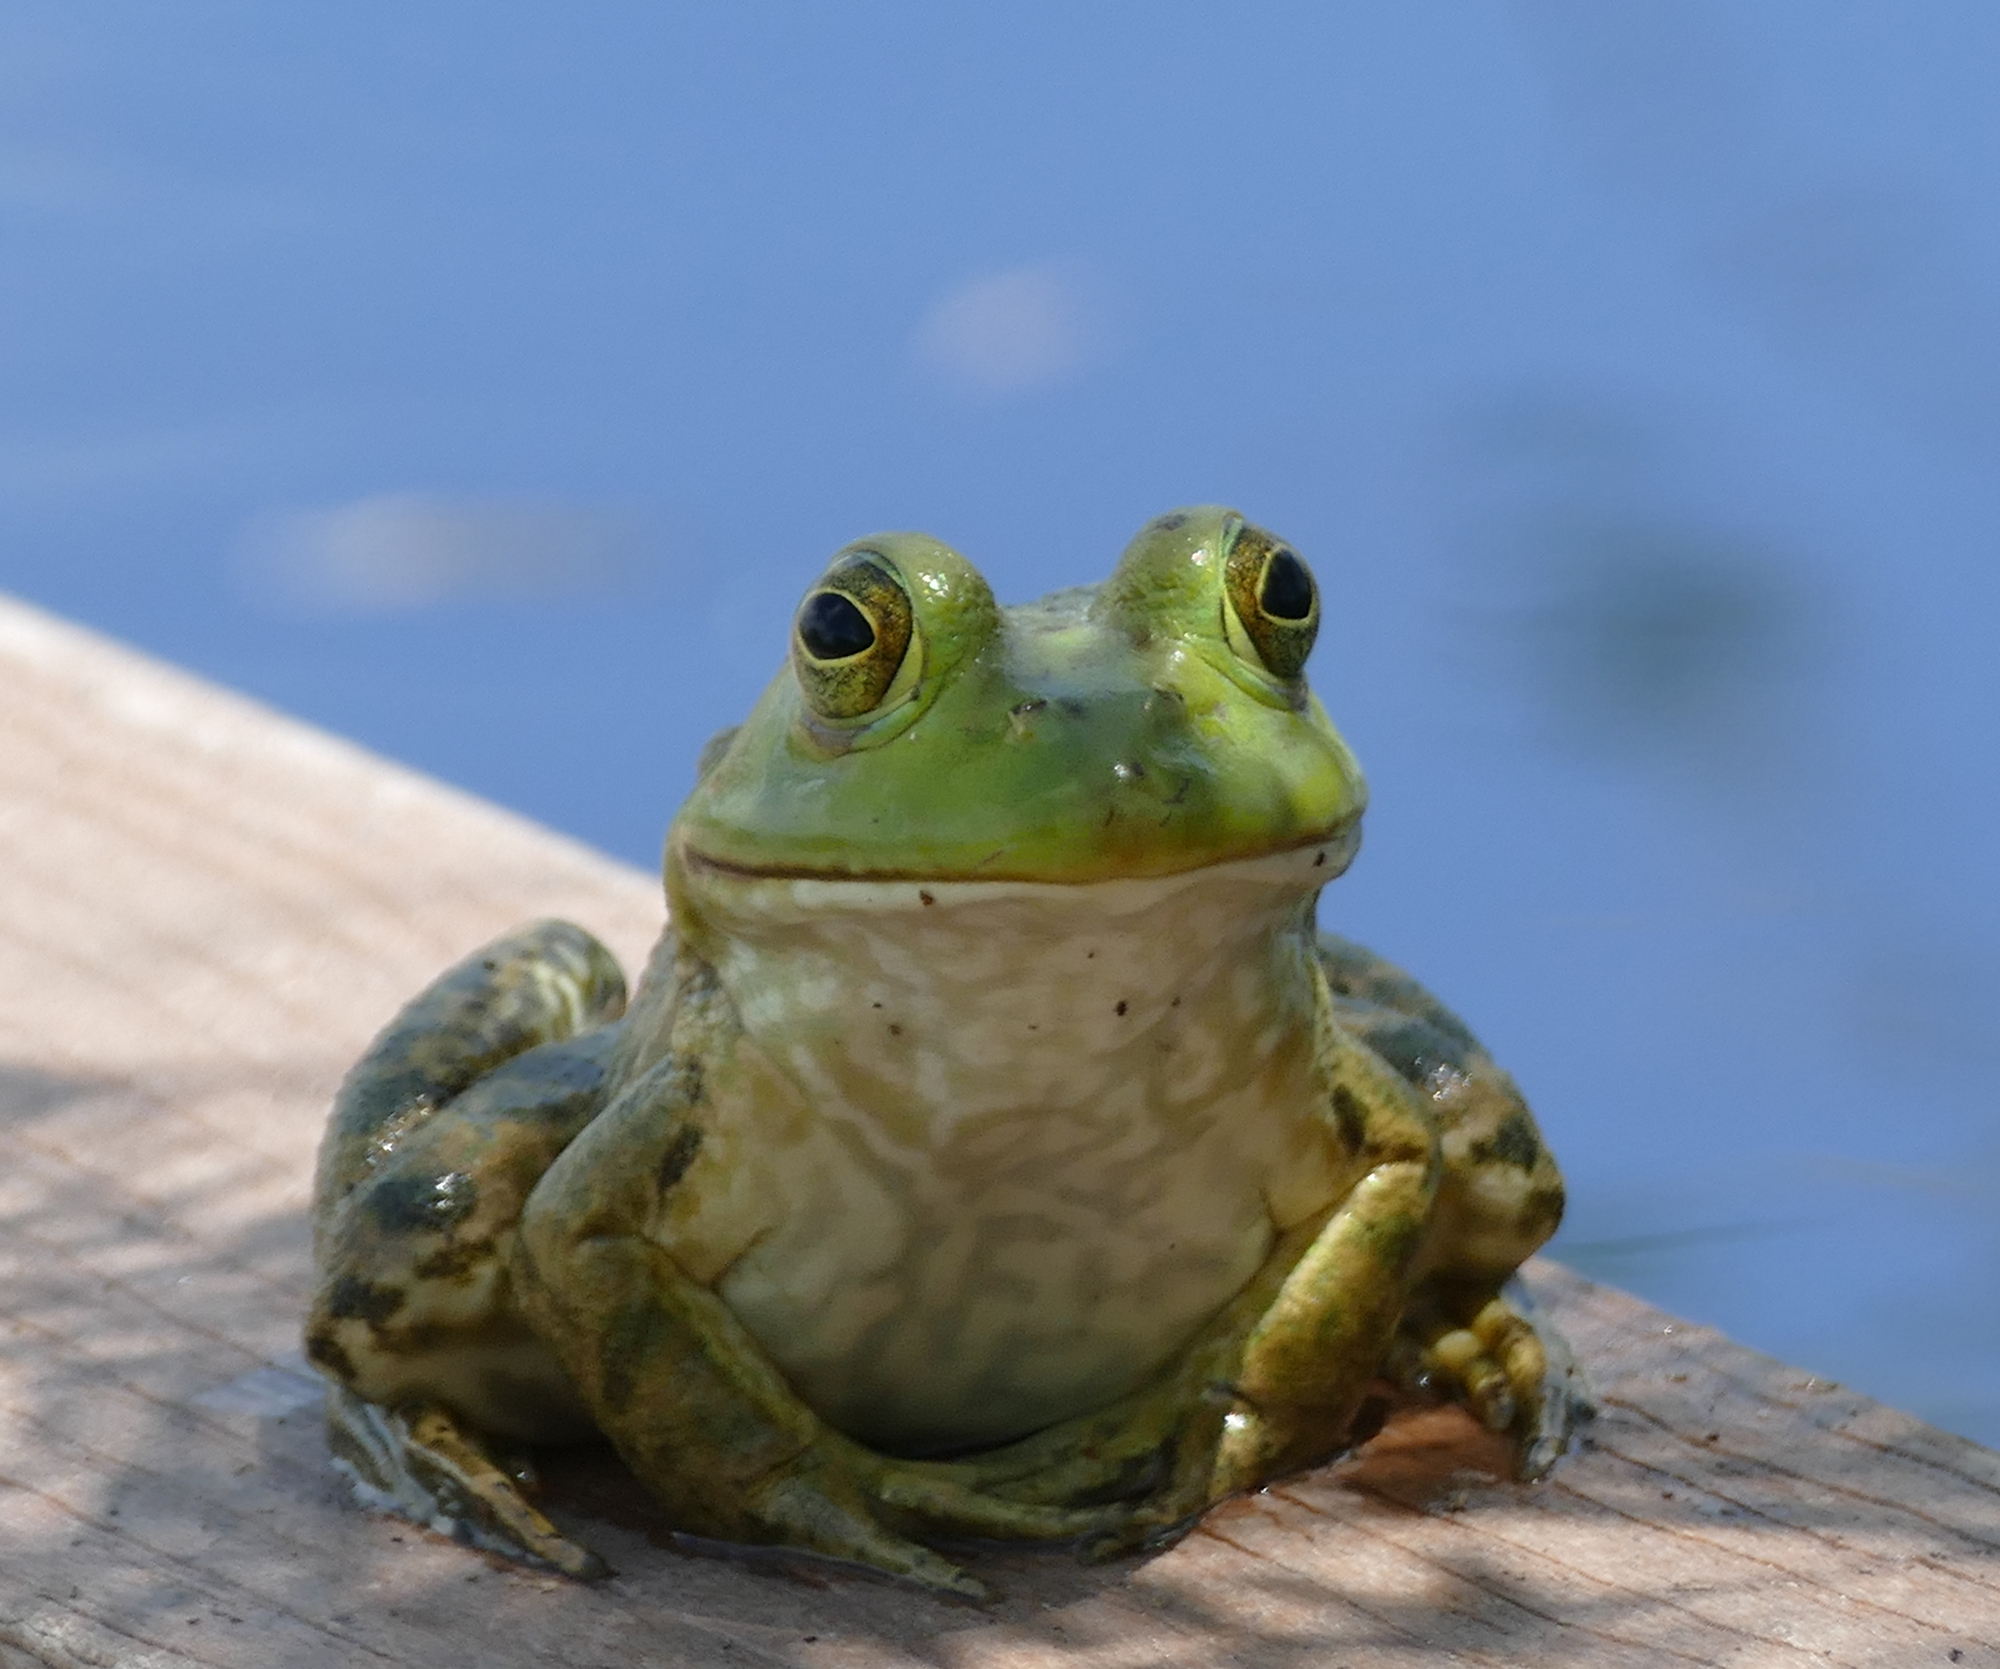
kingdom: Animalia
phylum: Chordata
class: Amphibia
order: Anura
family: Ranidae
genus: Lithobates
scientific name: Lithobates catesbeianus
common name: American bullfrog
